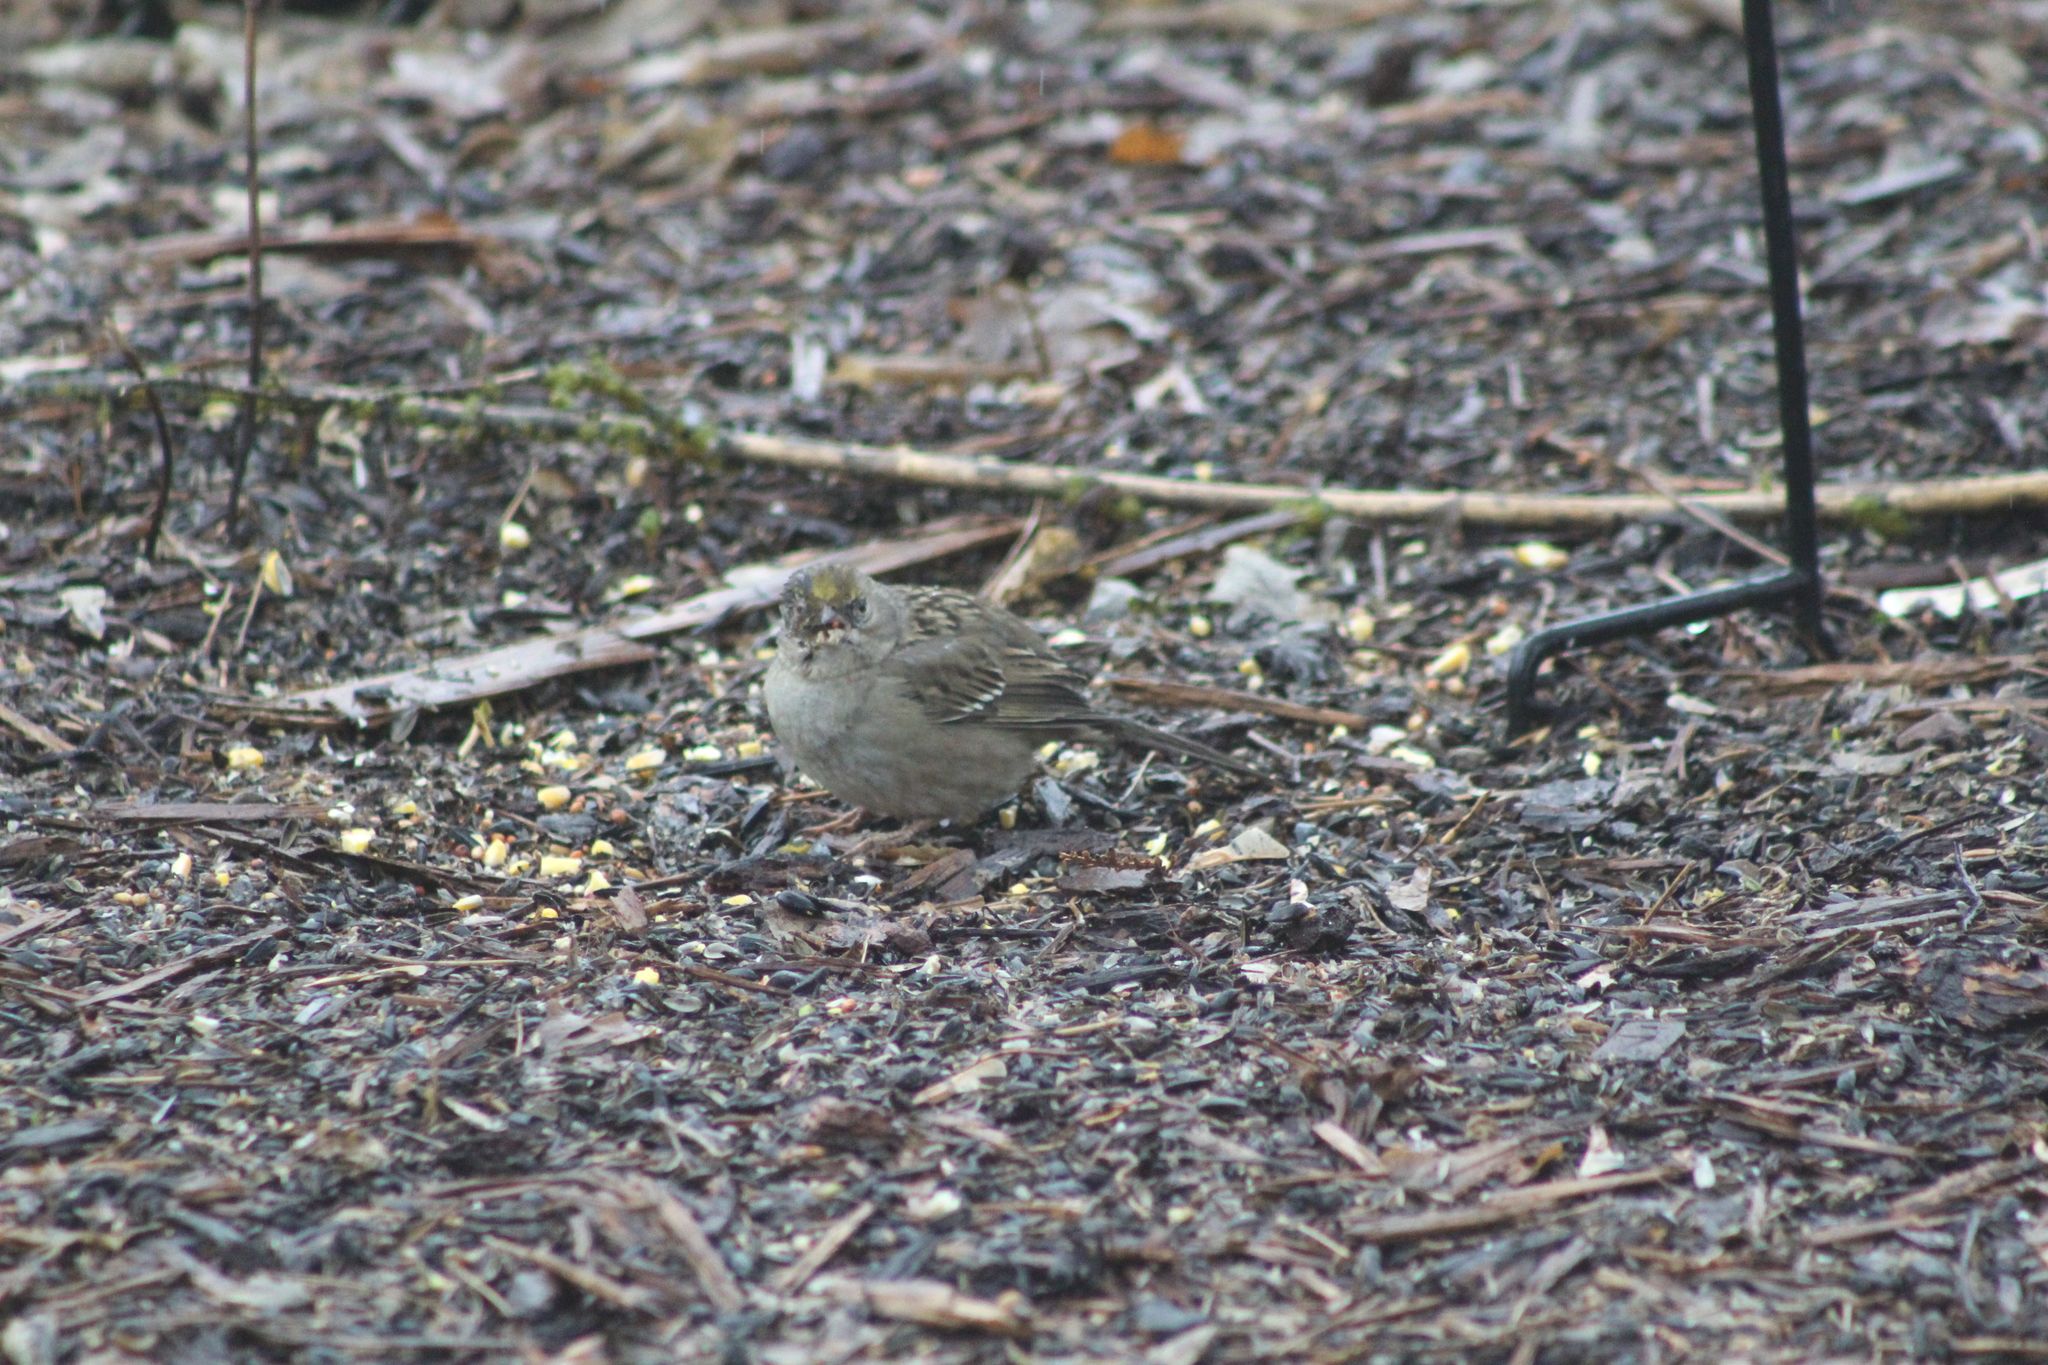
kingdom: Animalia
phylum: Chordata
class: Aves
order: Passeriformes
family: Passerellidae
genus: Zonotrichia
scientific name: Zonotrichia atricapilla
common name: Golden-crowned sparrow
